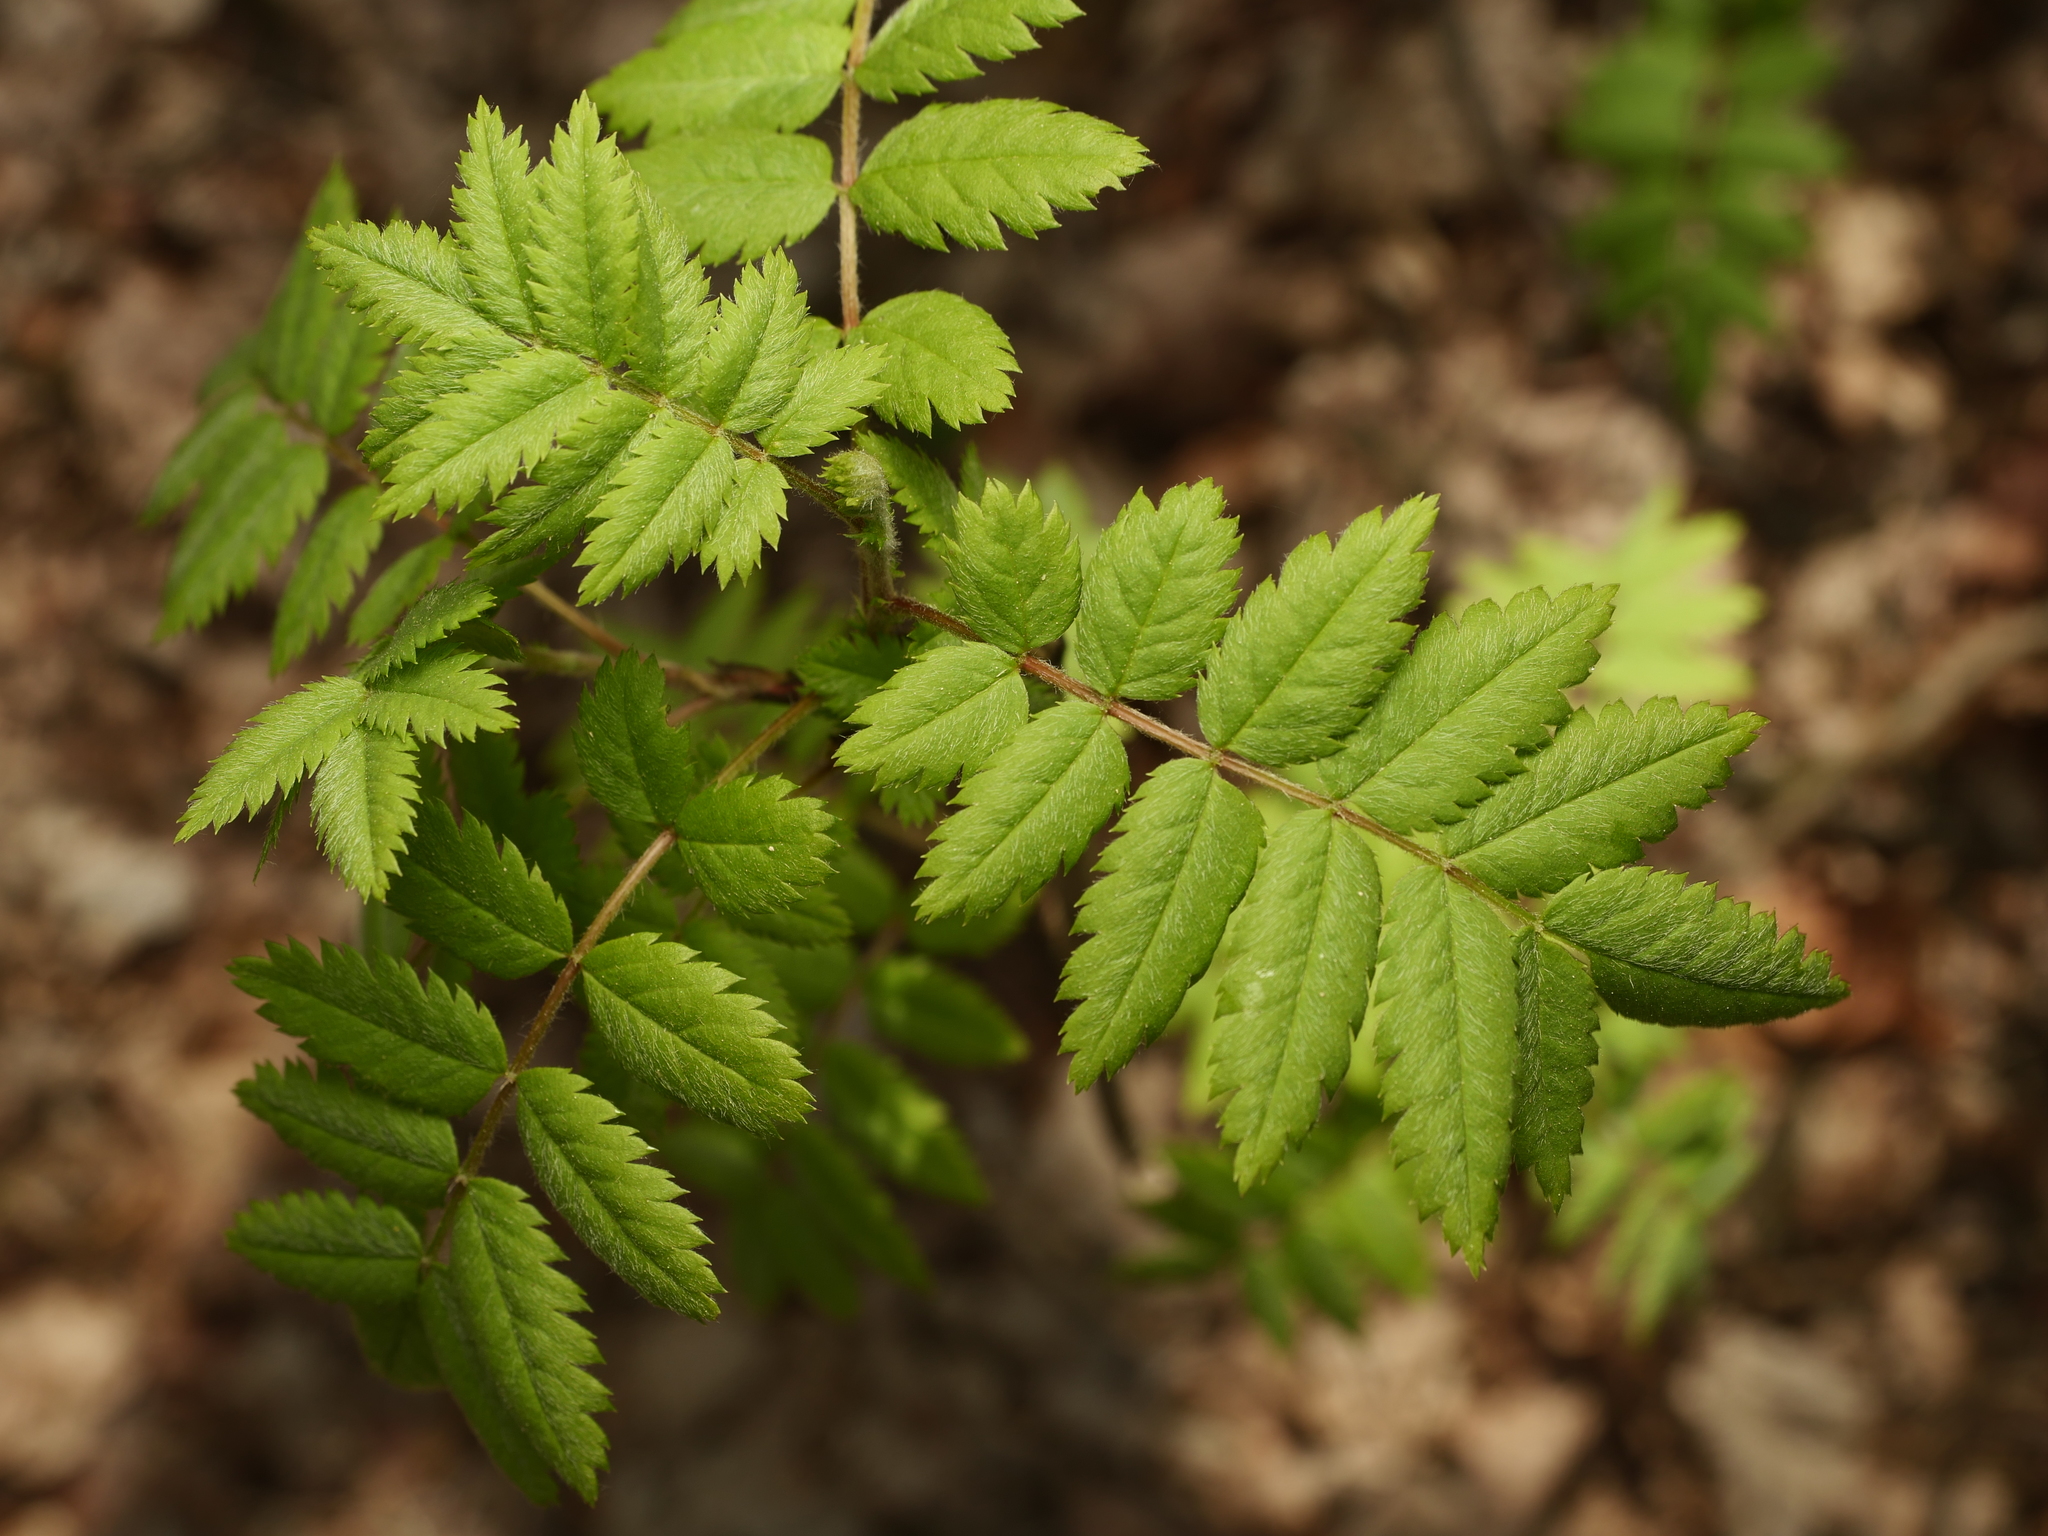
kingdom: Plantae
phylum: Tracheophyta
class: Magnoliopsida
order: Rosales
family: Rosaceae
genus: Sorbus
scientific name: Sorbus aucuparia
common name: Rowan
